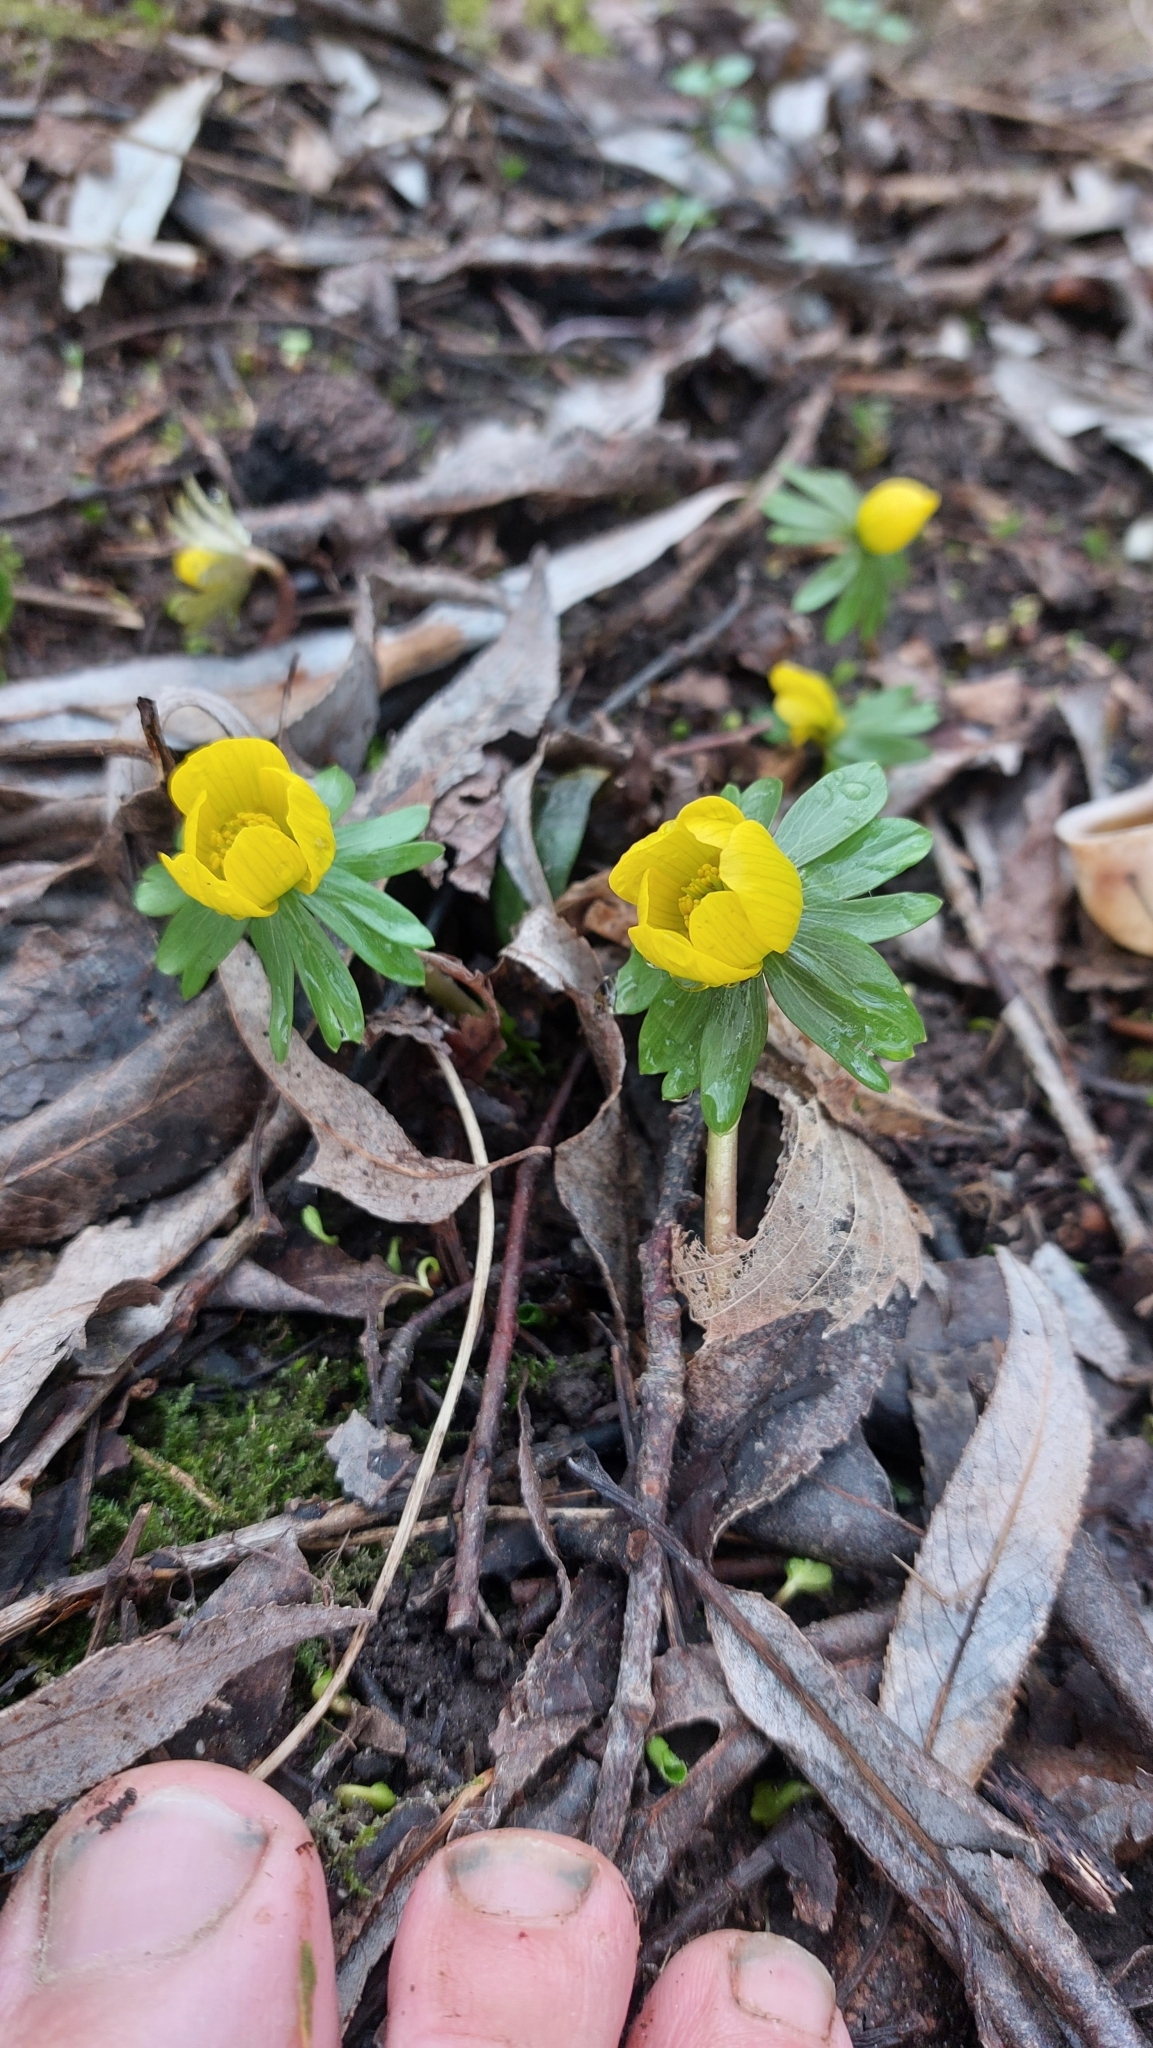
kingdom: Plantae
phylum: Tracheophyta
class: Magnoliopsida
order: Ranunculales
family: Ranunculaceae
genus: Eranthis
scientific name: Eranthis hyemalis
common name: Winter aconite
